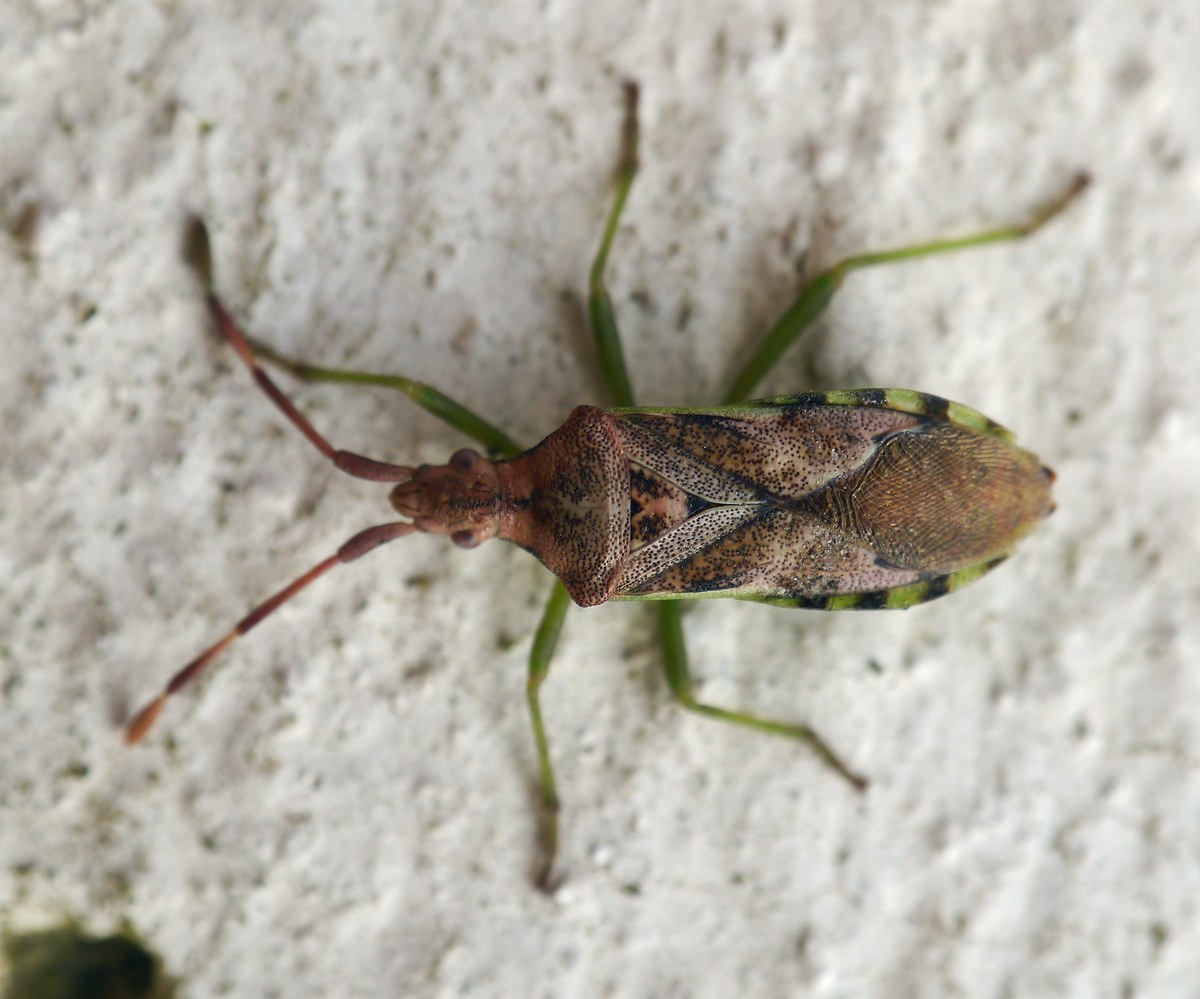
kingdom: Animalia
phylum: Arthropoda
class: Insecta
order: Hemiptera
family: Coreidae
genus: Gonocerus
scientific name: Gonocerus juniperi
